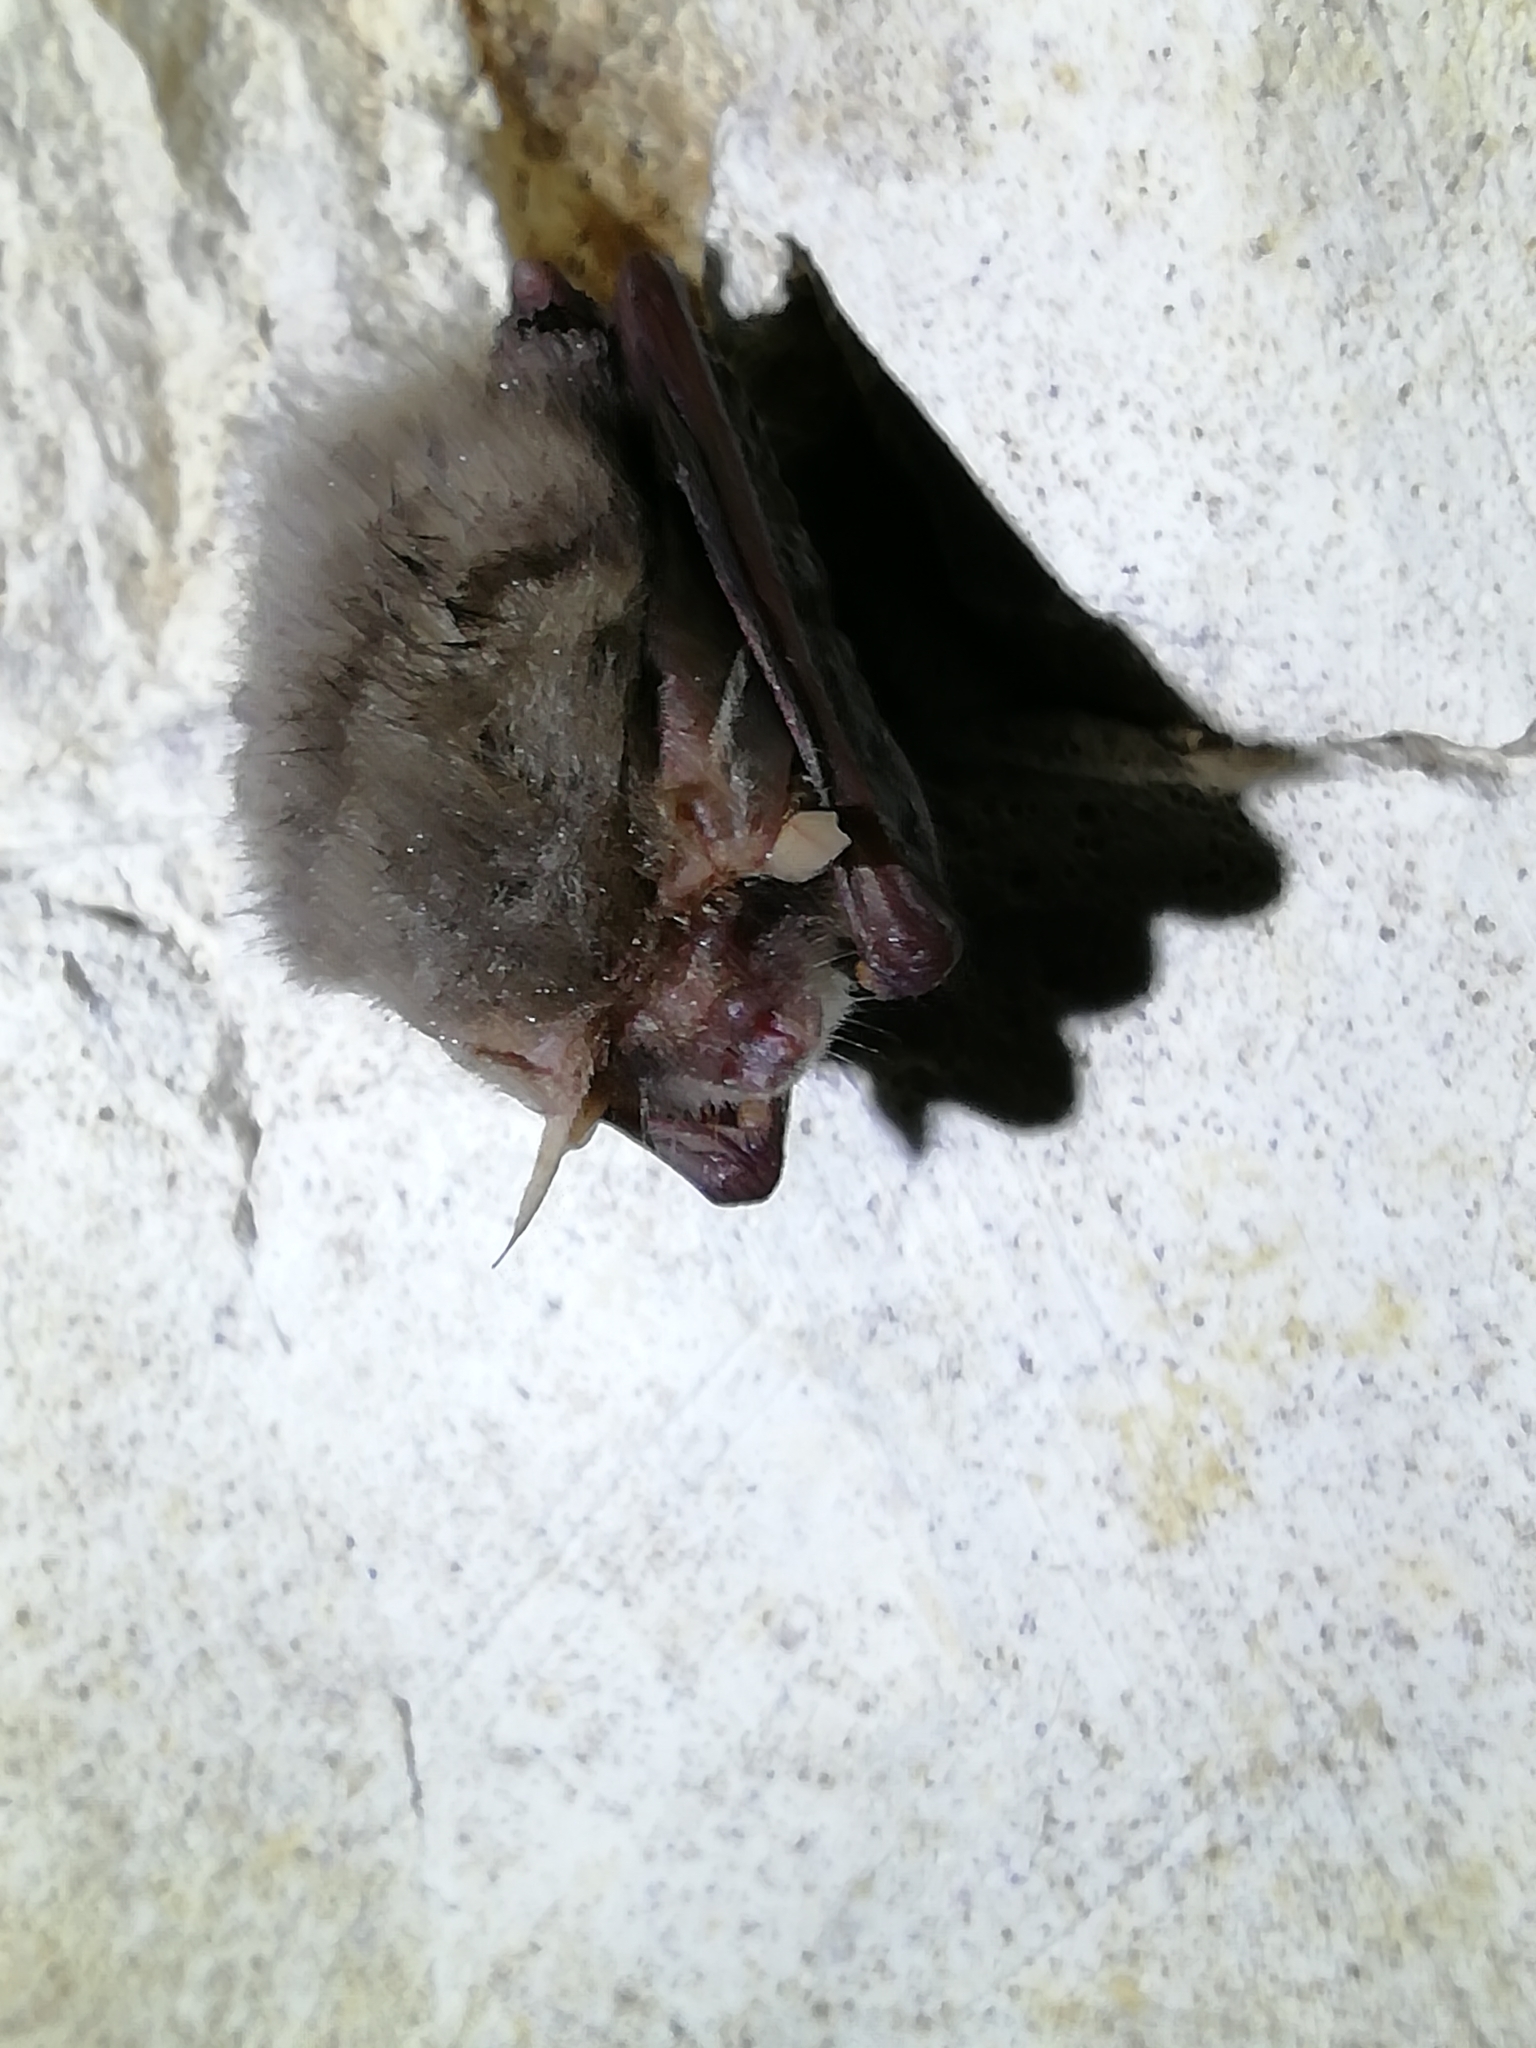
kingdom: Animalia
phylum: Chordata
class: Mammalia
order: Chiroptera
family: Vespertilionidae
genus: Plecotus
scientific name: Plecotus auritus
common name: Brown long-eared bat
